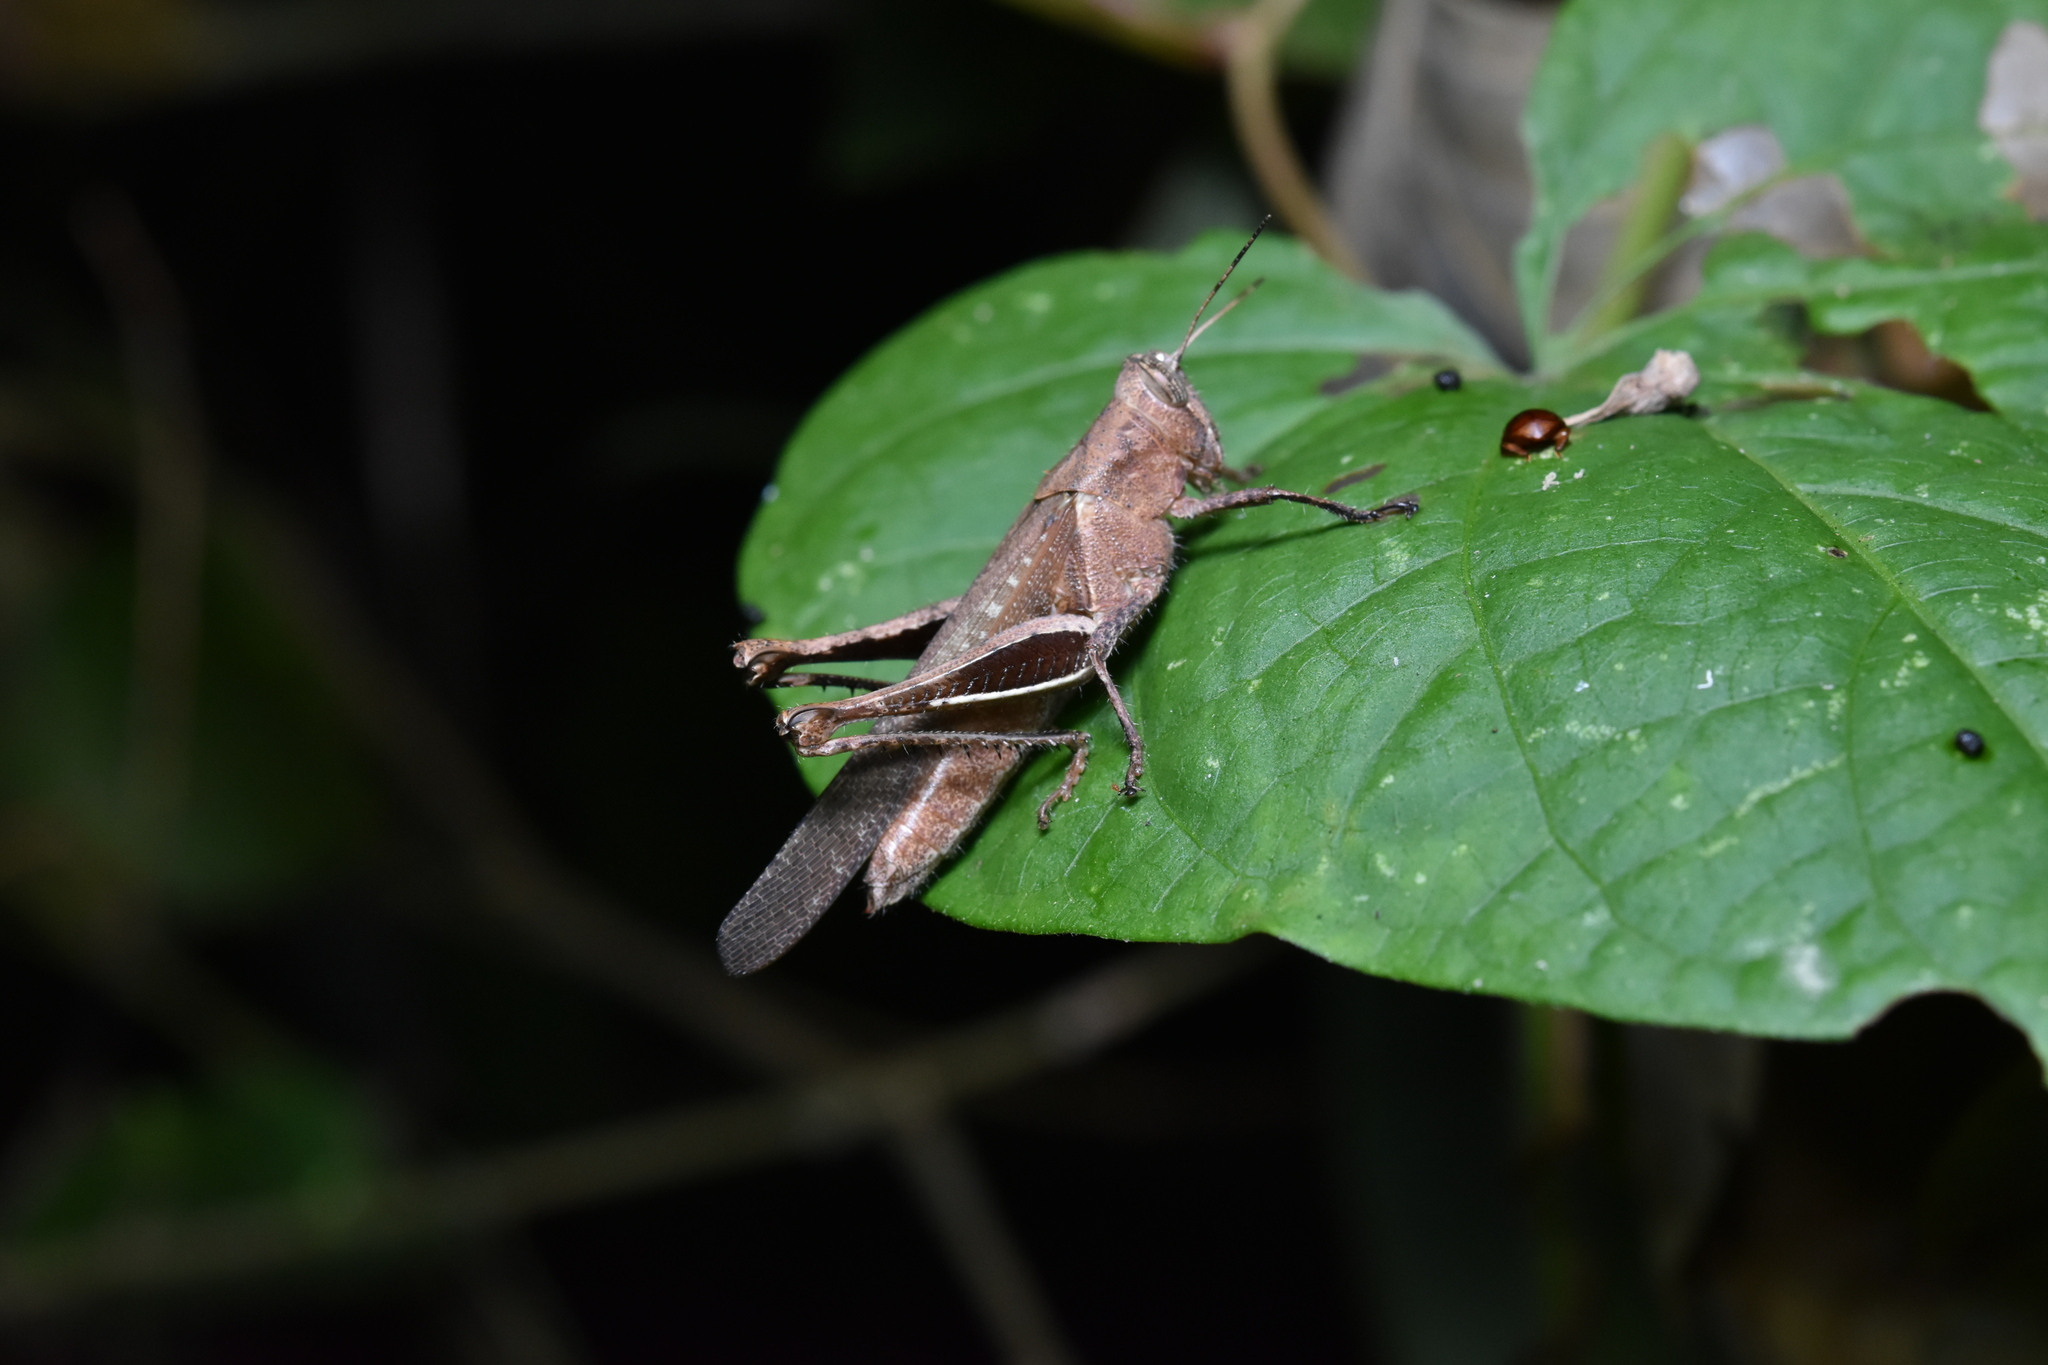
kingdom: Animalia
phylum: Arthropoda
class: Insecta
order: Orthoptera
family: Acrididae
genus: Abracris
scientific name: Abracris flavolineata
